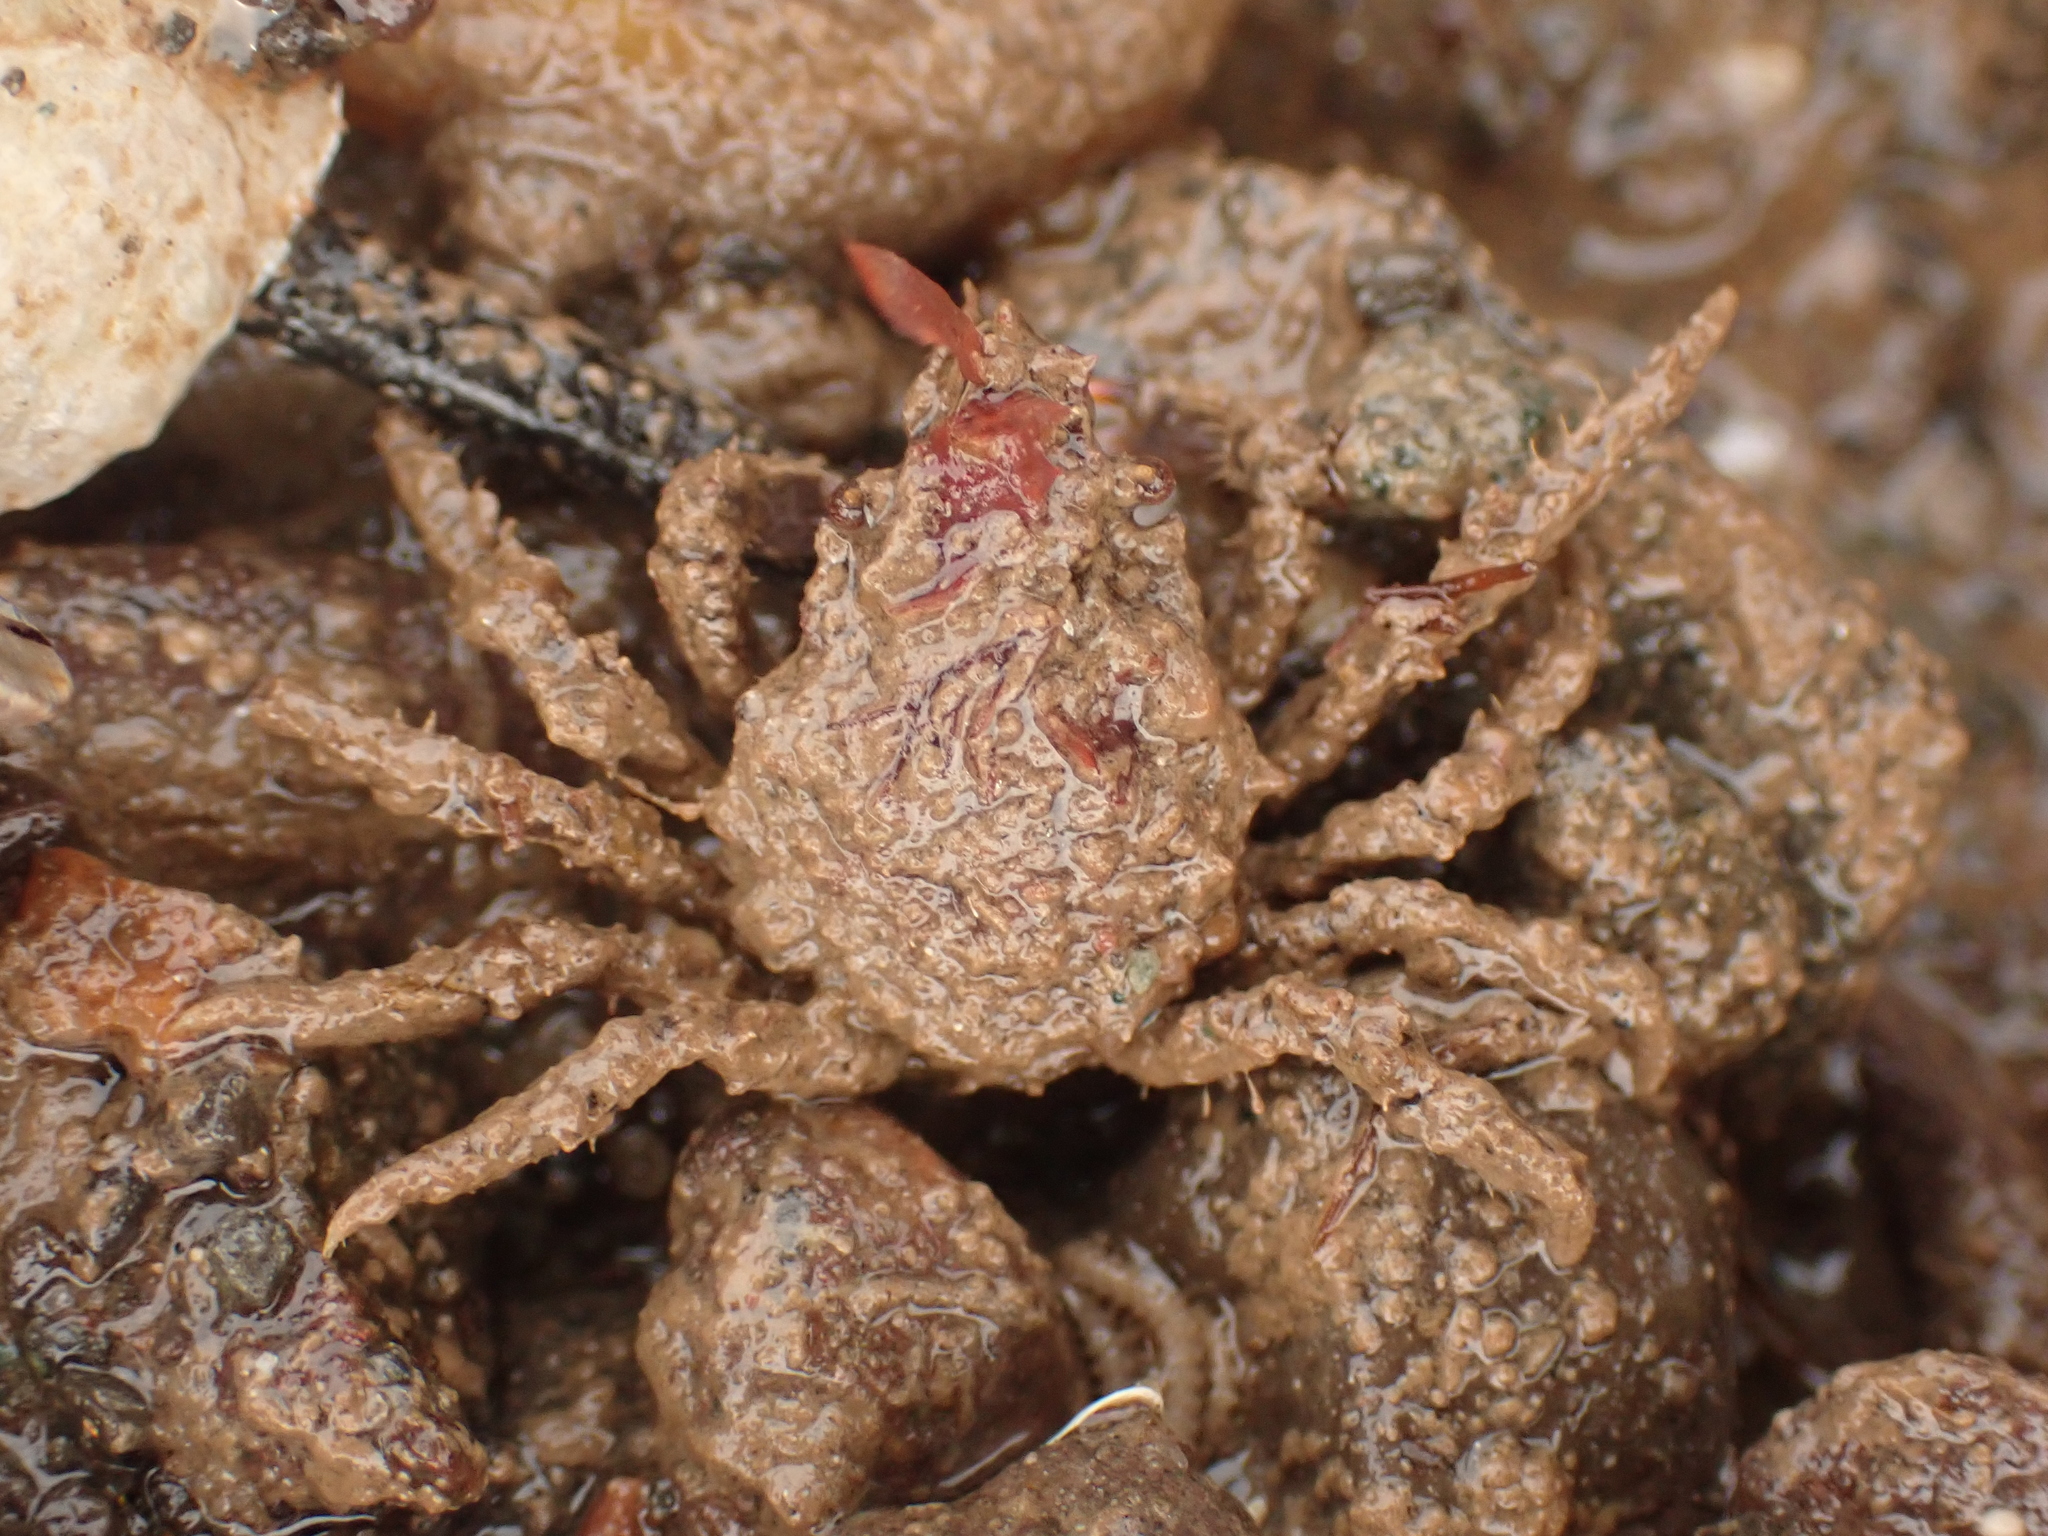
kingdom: Animalia
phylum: Arthropoda
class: Malacostraca
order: Decapoda
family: Oregoniidae
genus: Hyas
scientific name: Hyas araneus
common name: Great spider crab
